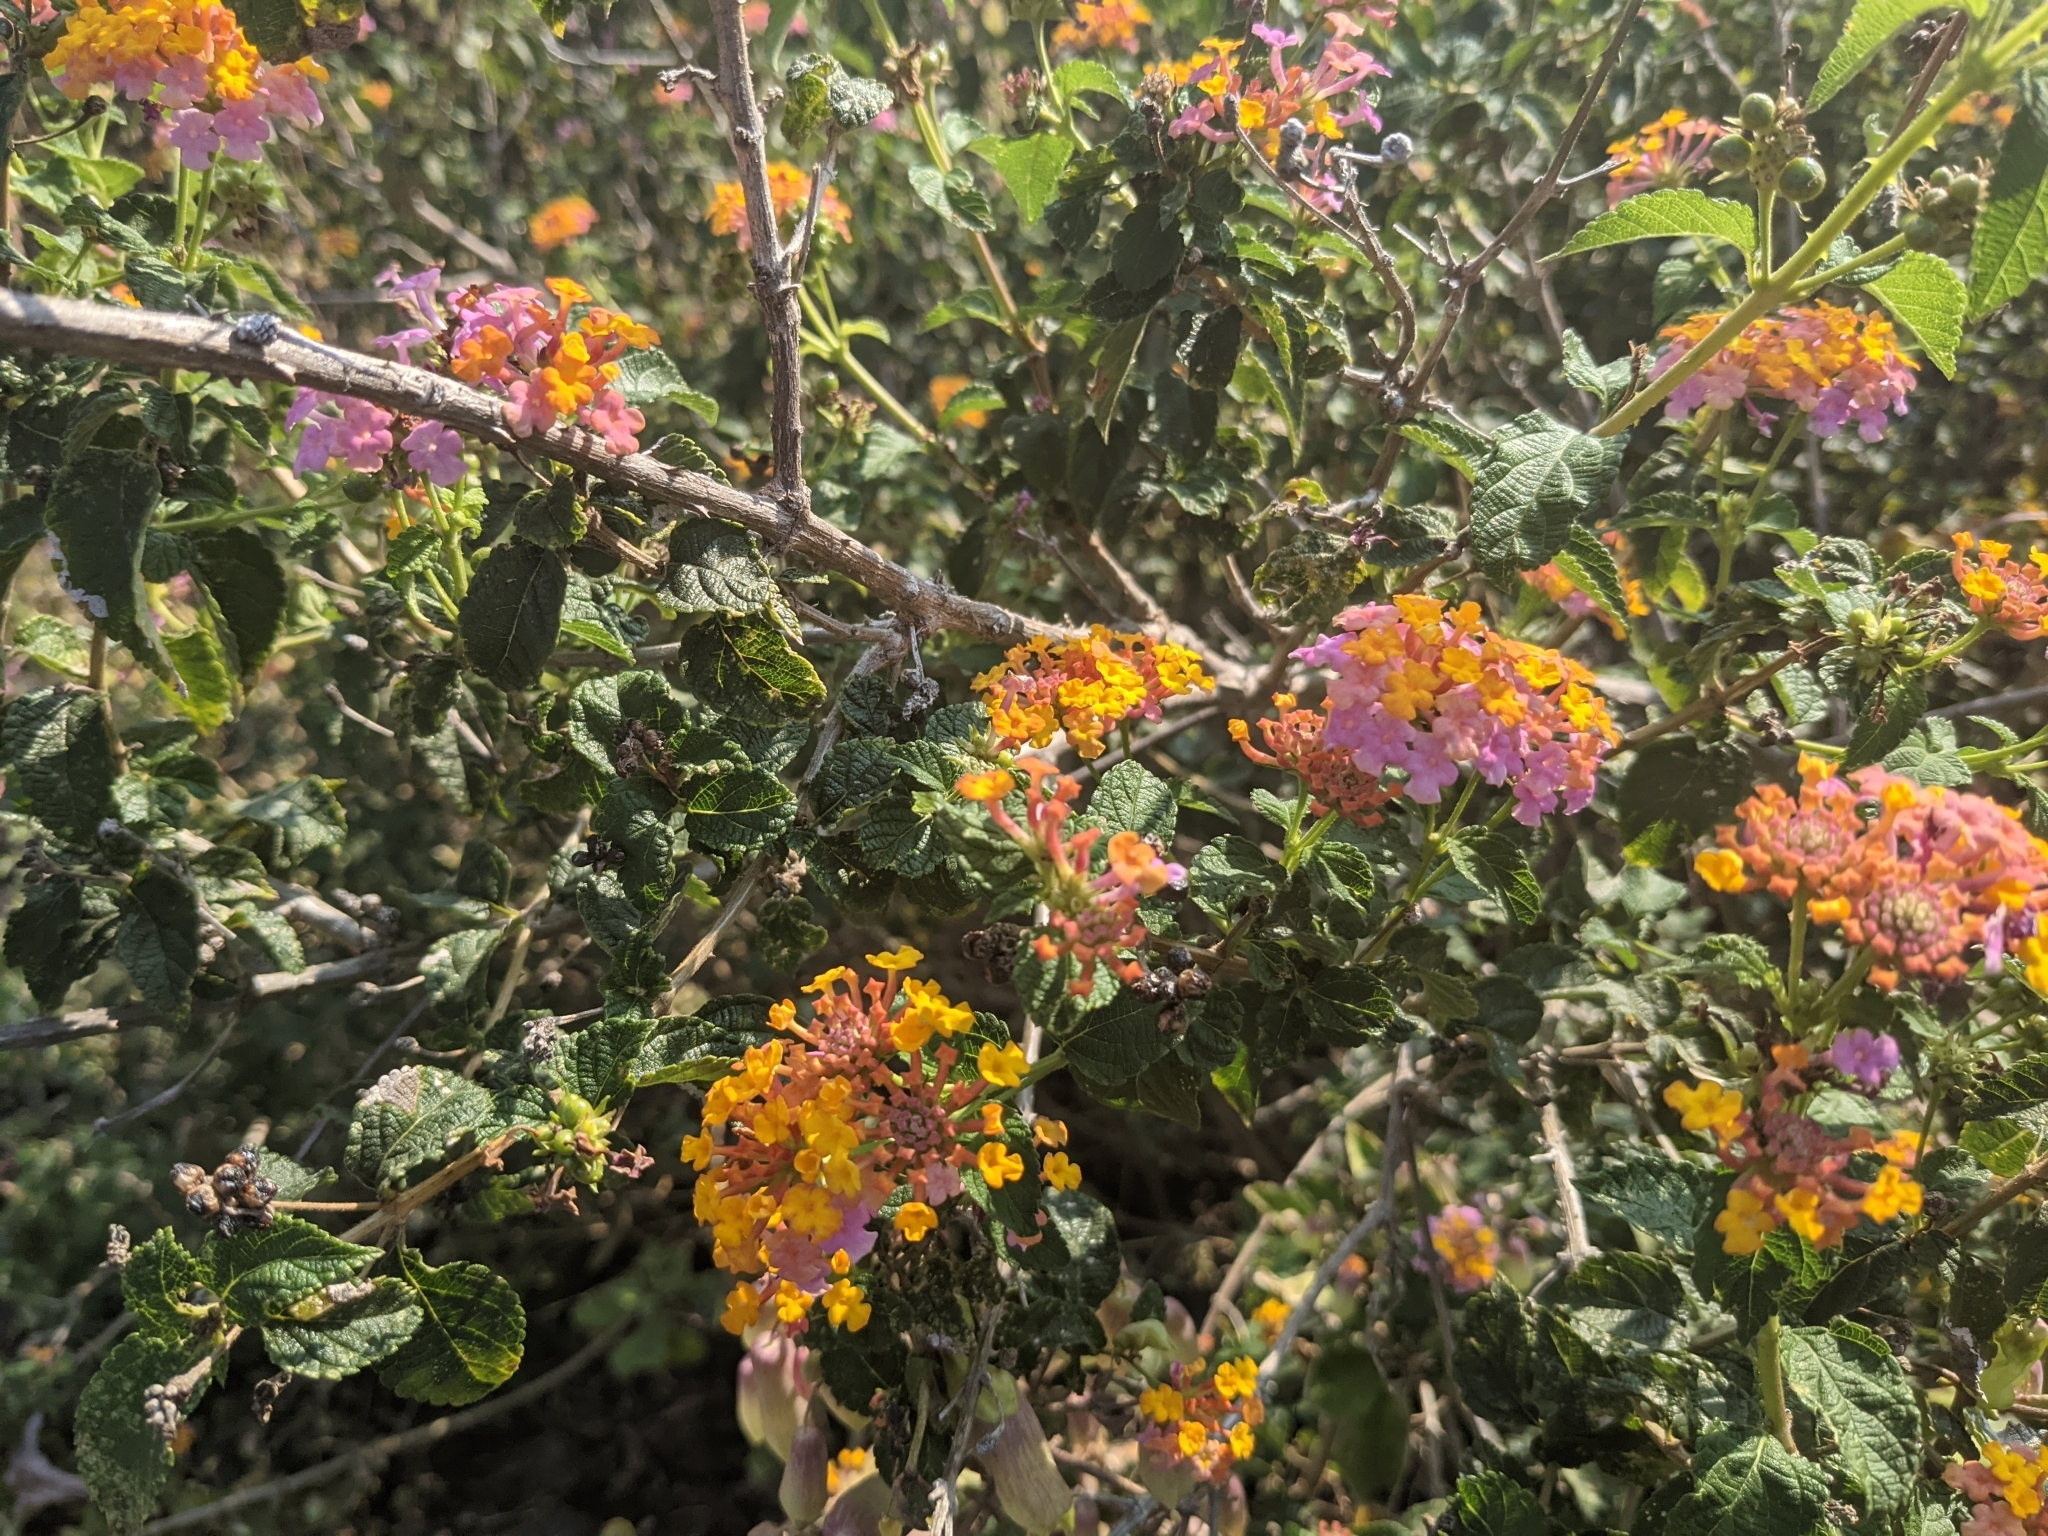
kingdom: Plantae
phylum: Tracheophyta
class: Magnoliopsida
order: Lamiales
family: Verbenaceae
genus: Lantana
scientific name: Lantana camara
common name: Lantana
